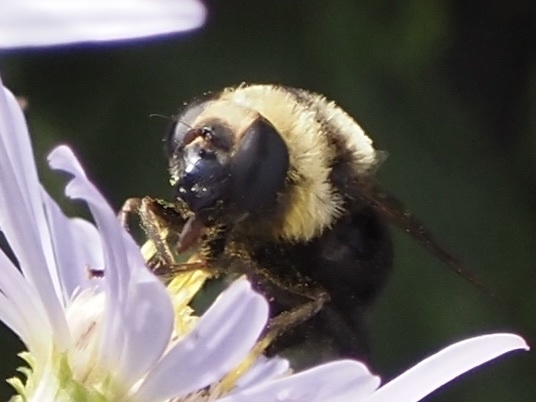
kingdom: Animalia
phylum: Arthropoda
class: Insecta
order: Diptera
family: Syrphidae
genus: Eristalis
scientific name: Eristalis flavipes
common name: Orange-legged drone fly
